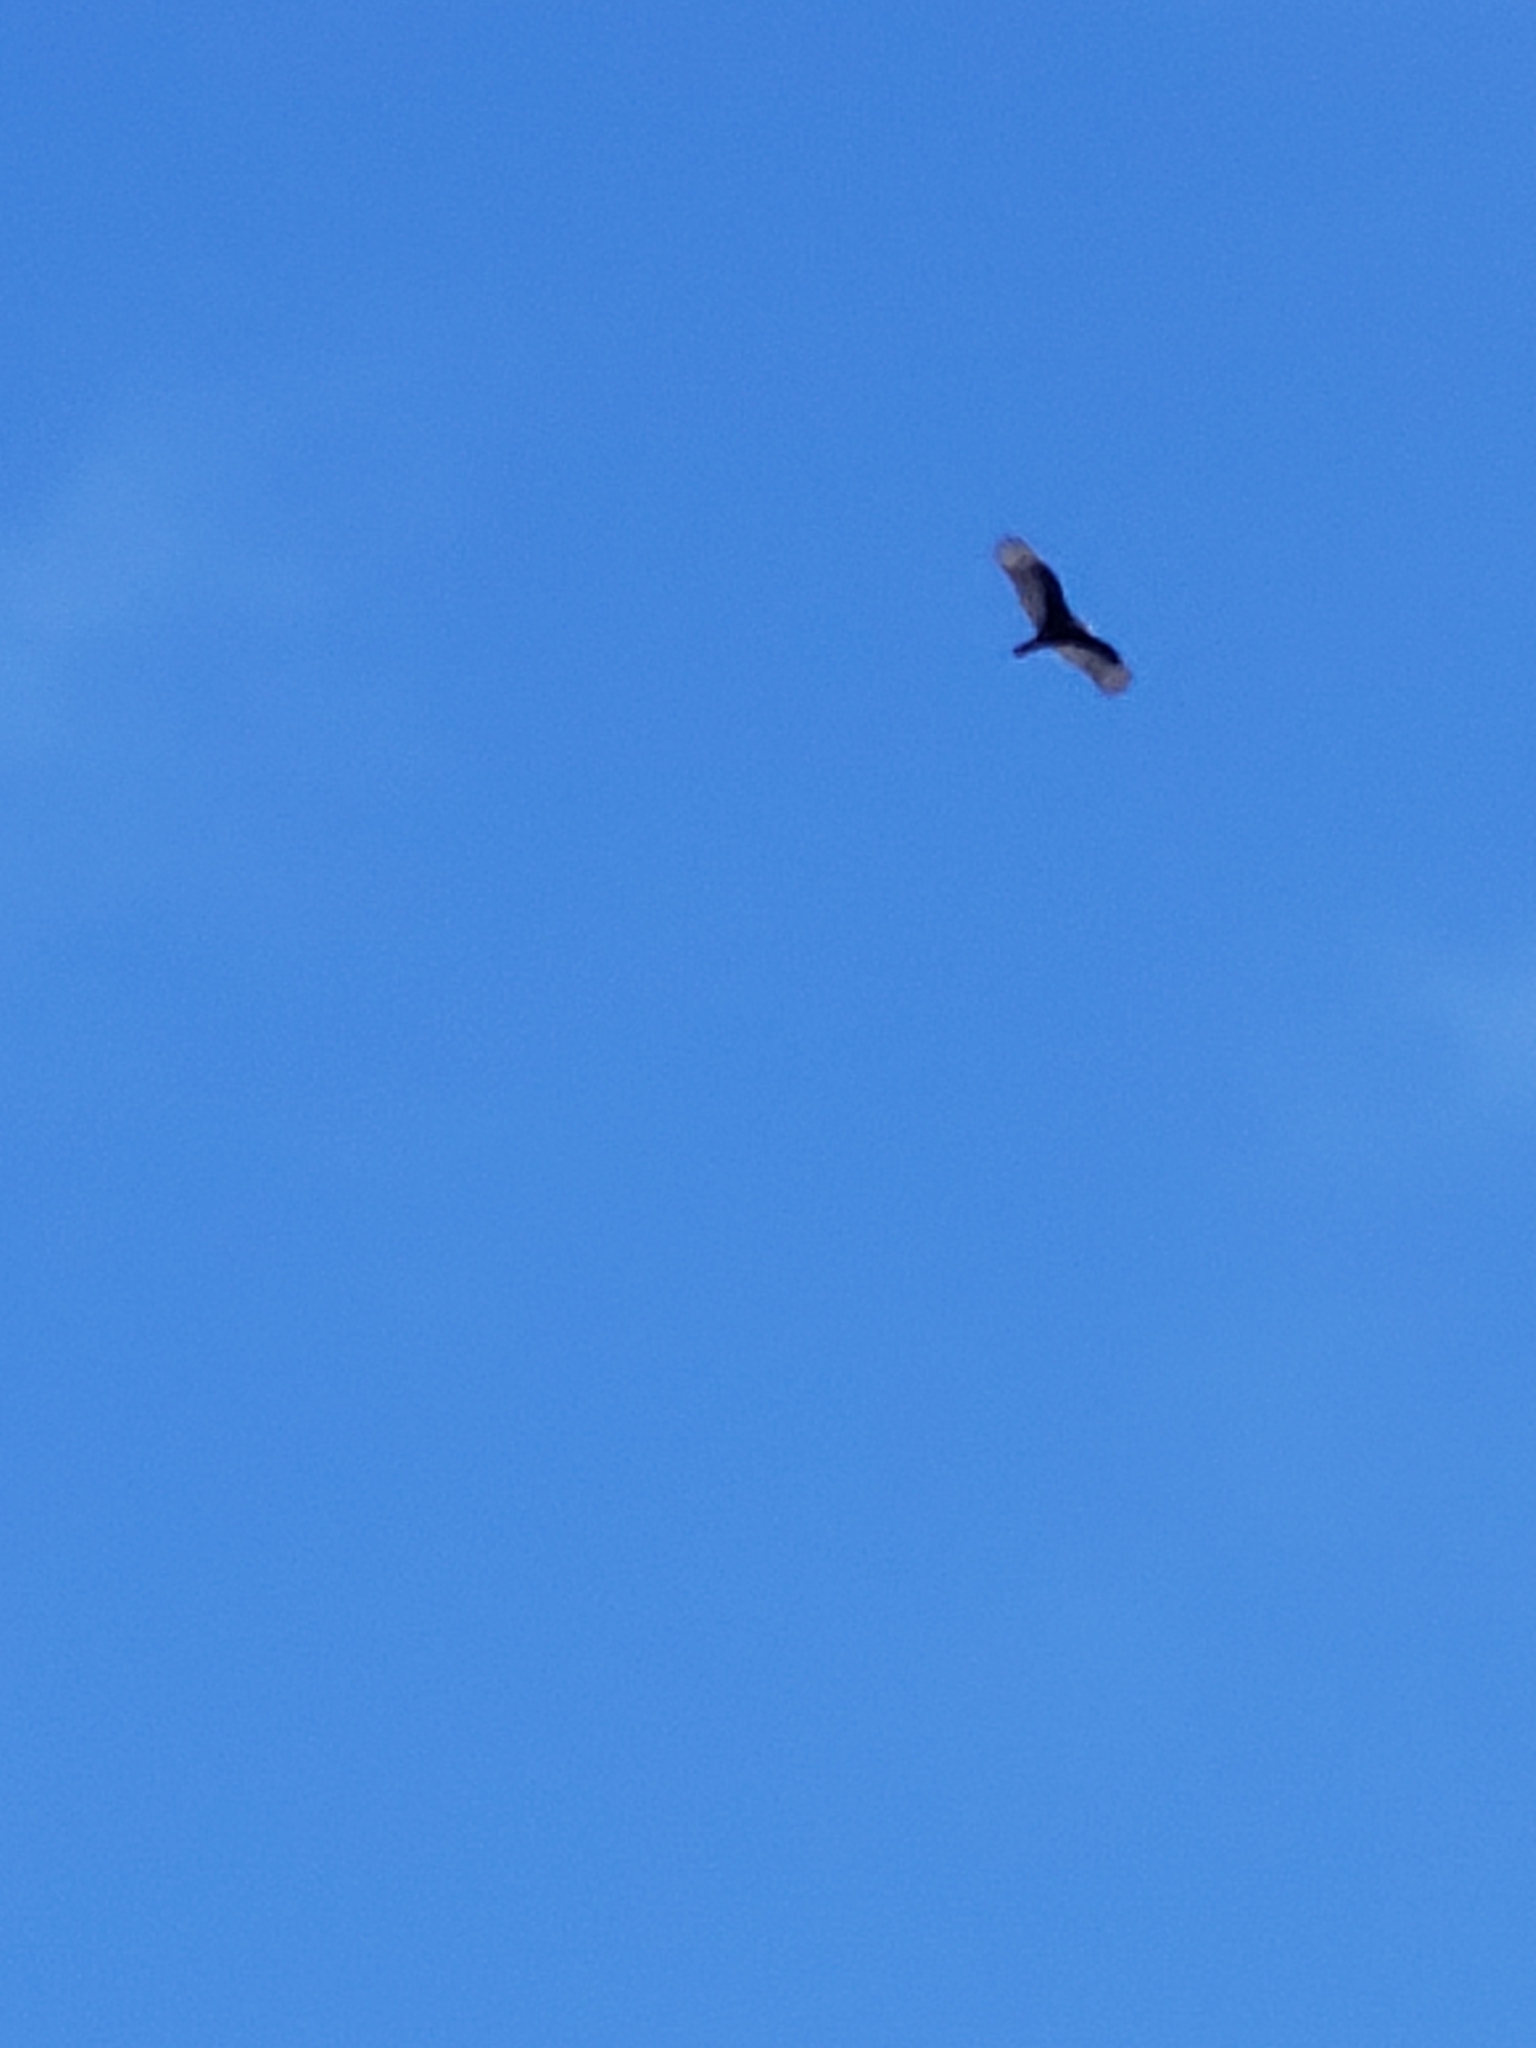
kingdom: Animalia
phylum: Chordata
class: Aves
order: Accipitriformes
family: Cathartidae
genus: Cathartes
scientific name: Cathartes aura
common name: Turkey vulture
